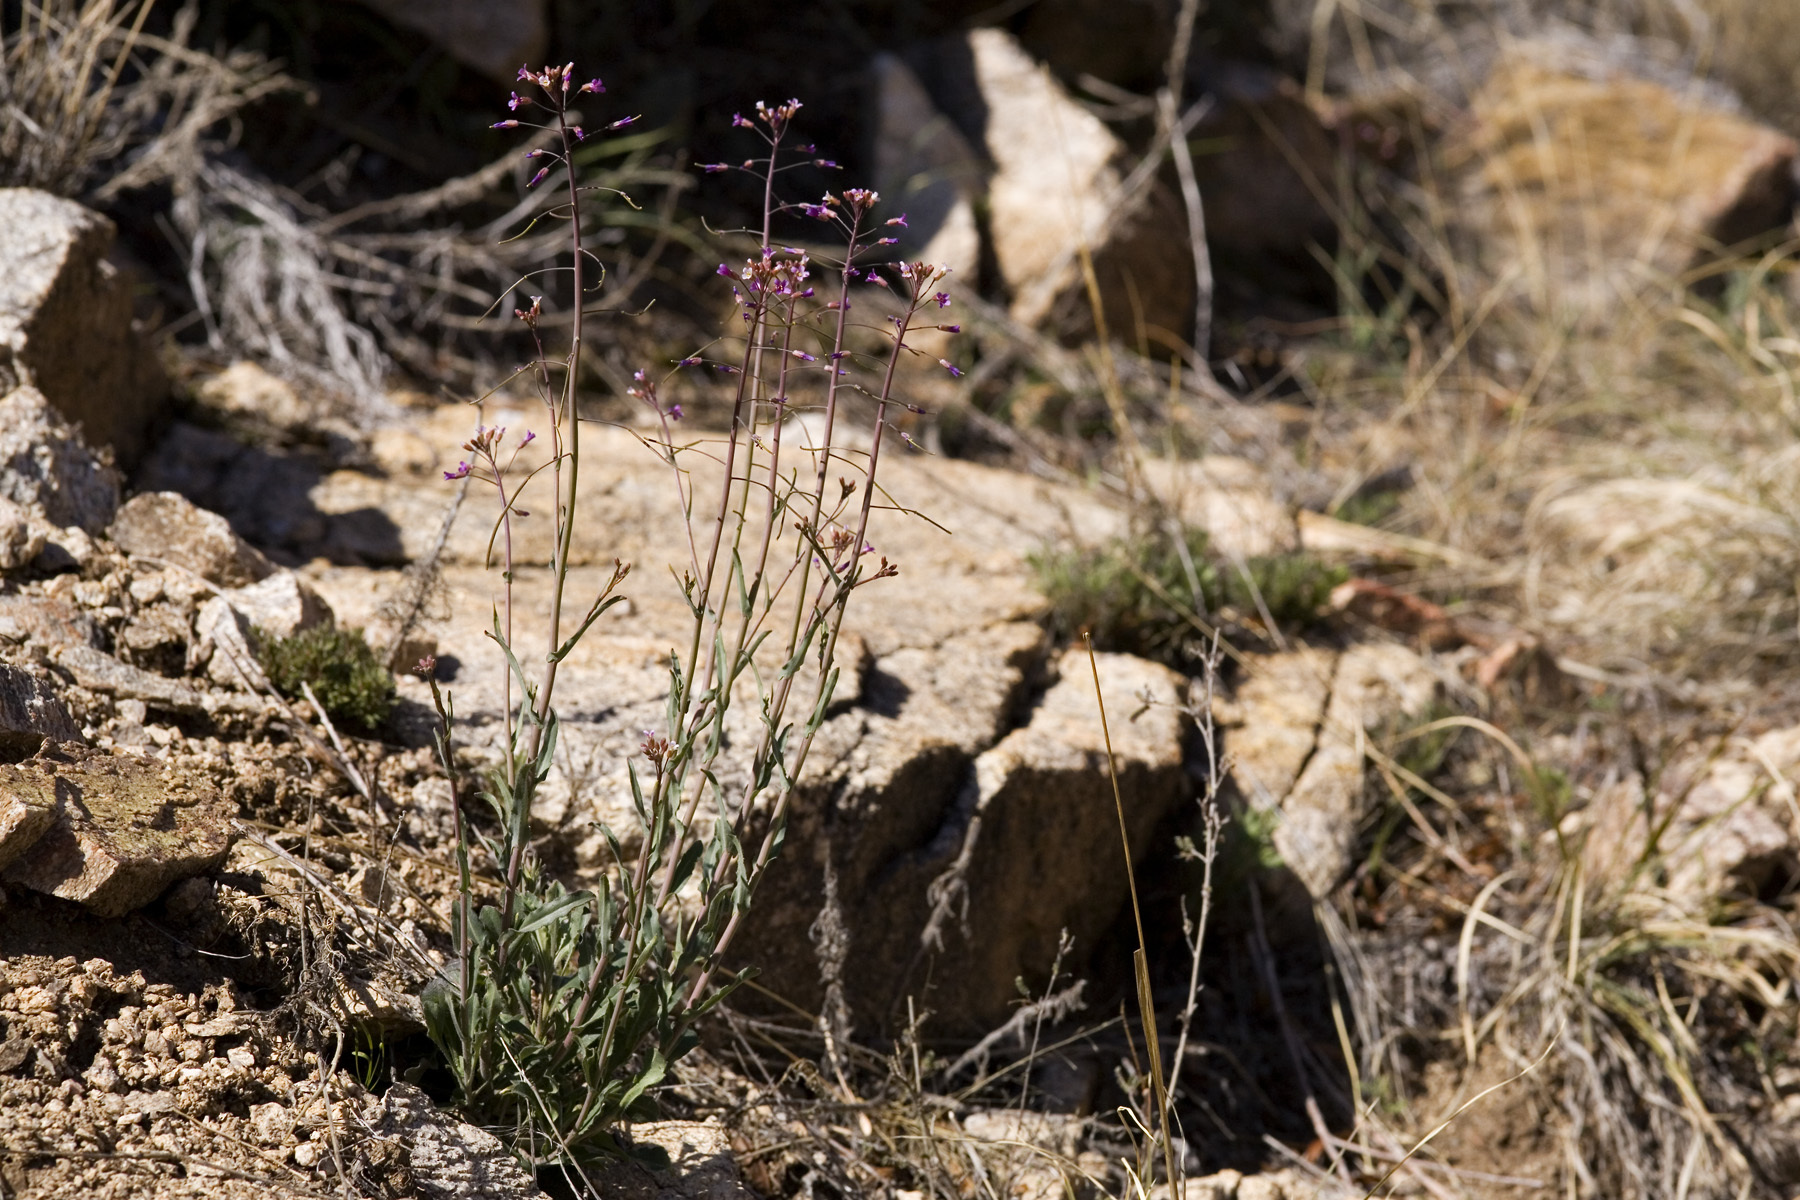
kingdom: Plantae
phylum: Tracheophyta
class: Magnoliopsida
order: Brassicales
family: Brassicaceae
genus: Boechera
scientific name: Boechera perennans
